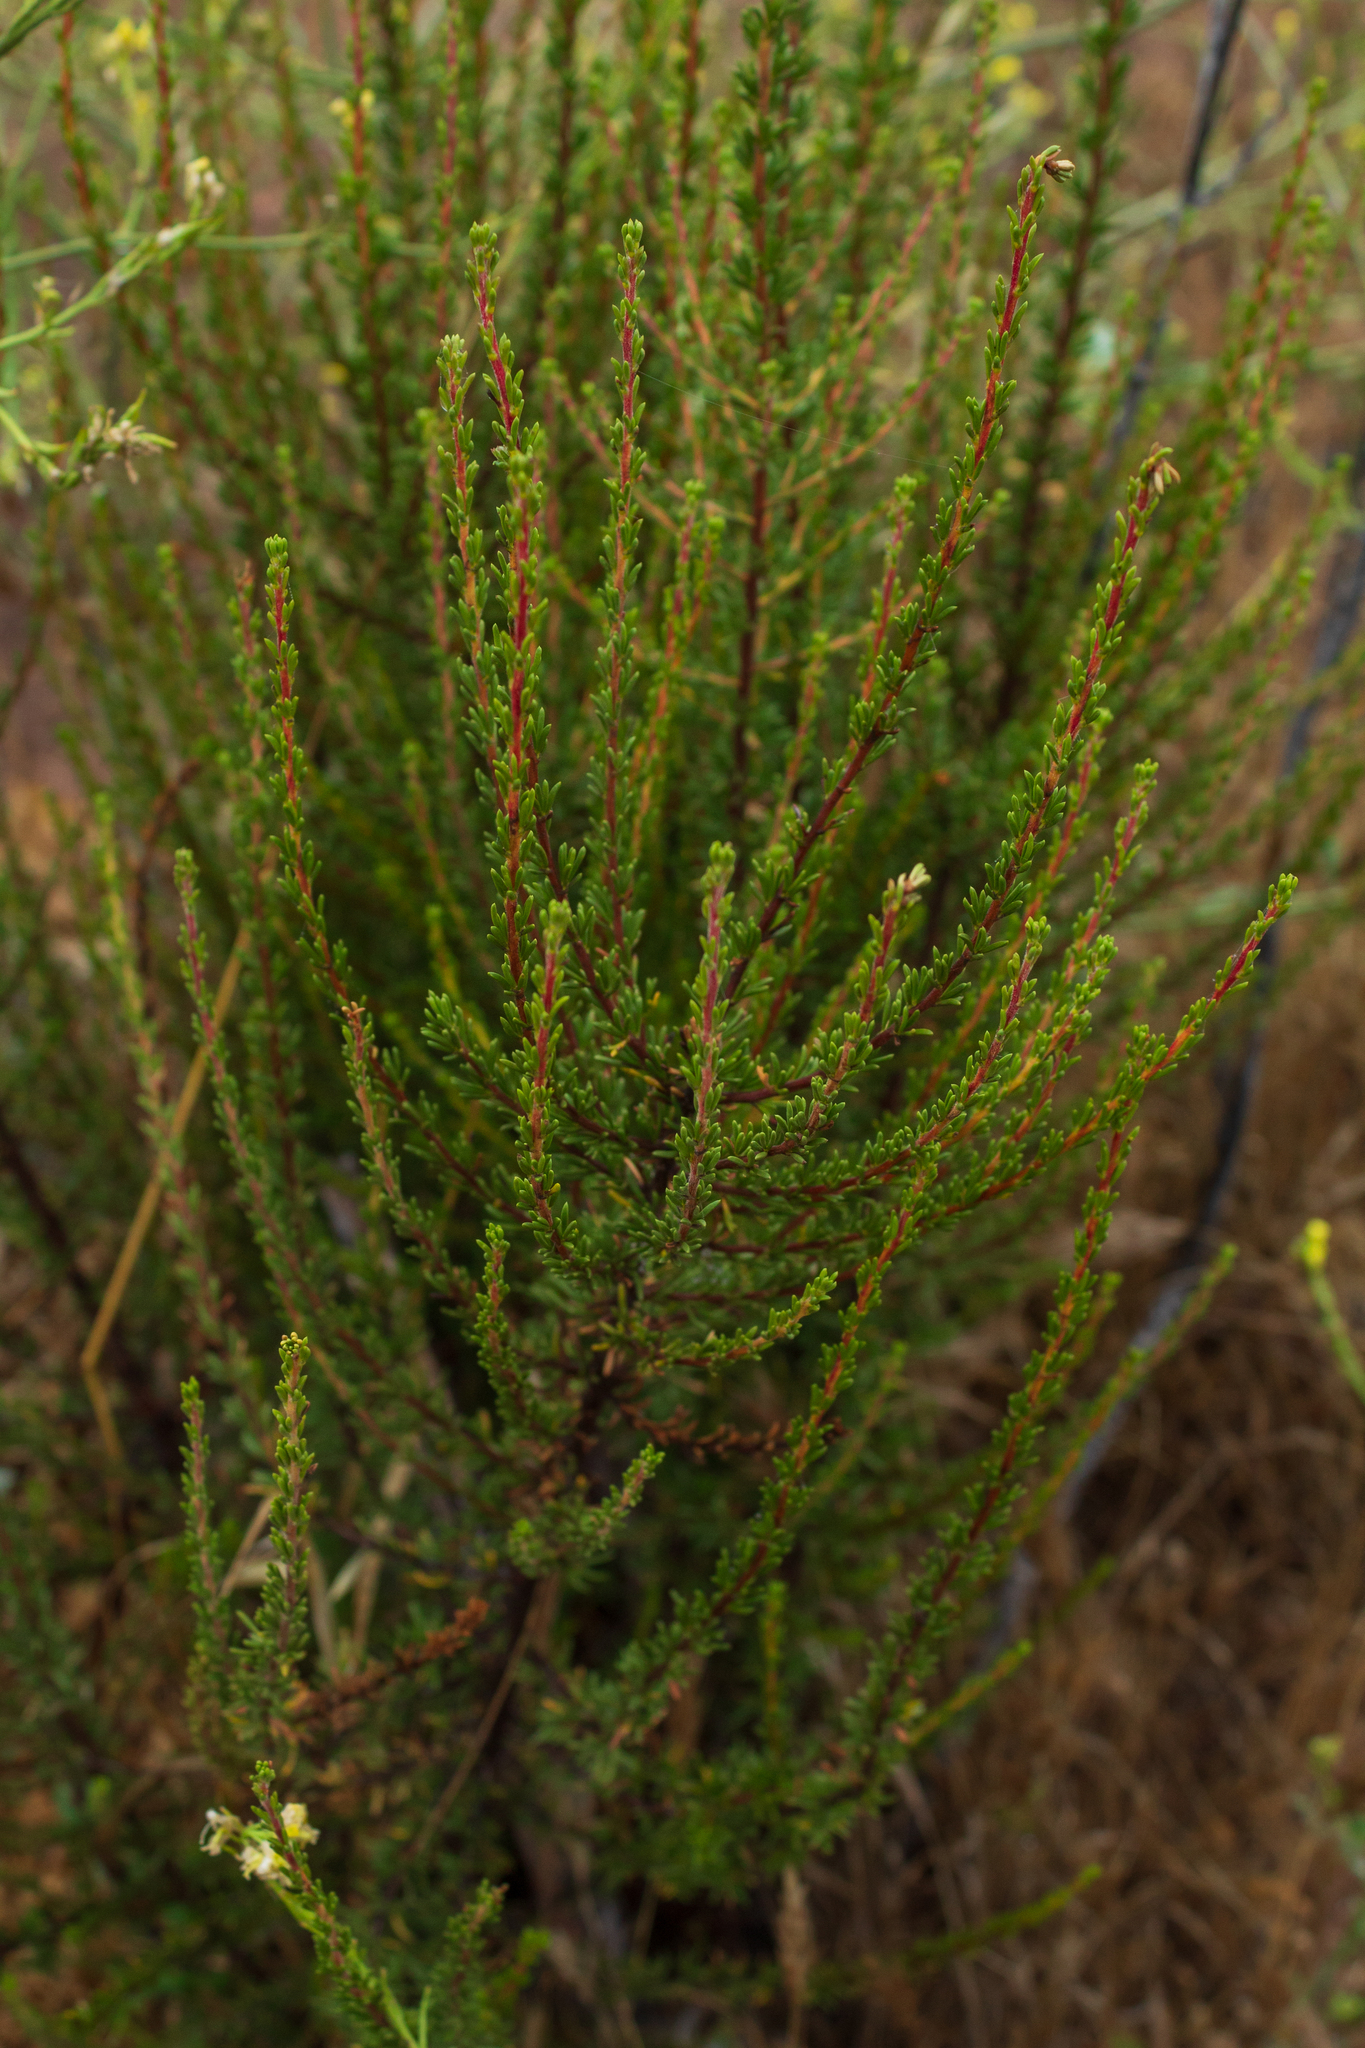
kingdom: Plantae
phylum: Tracheophyta
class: Magnoliopsida
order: Rosales
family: Rosaceae
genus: Adenostoma
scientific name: Adenostoma fasciculatum
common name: Chamise
